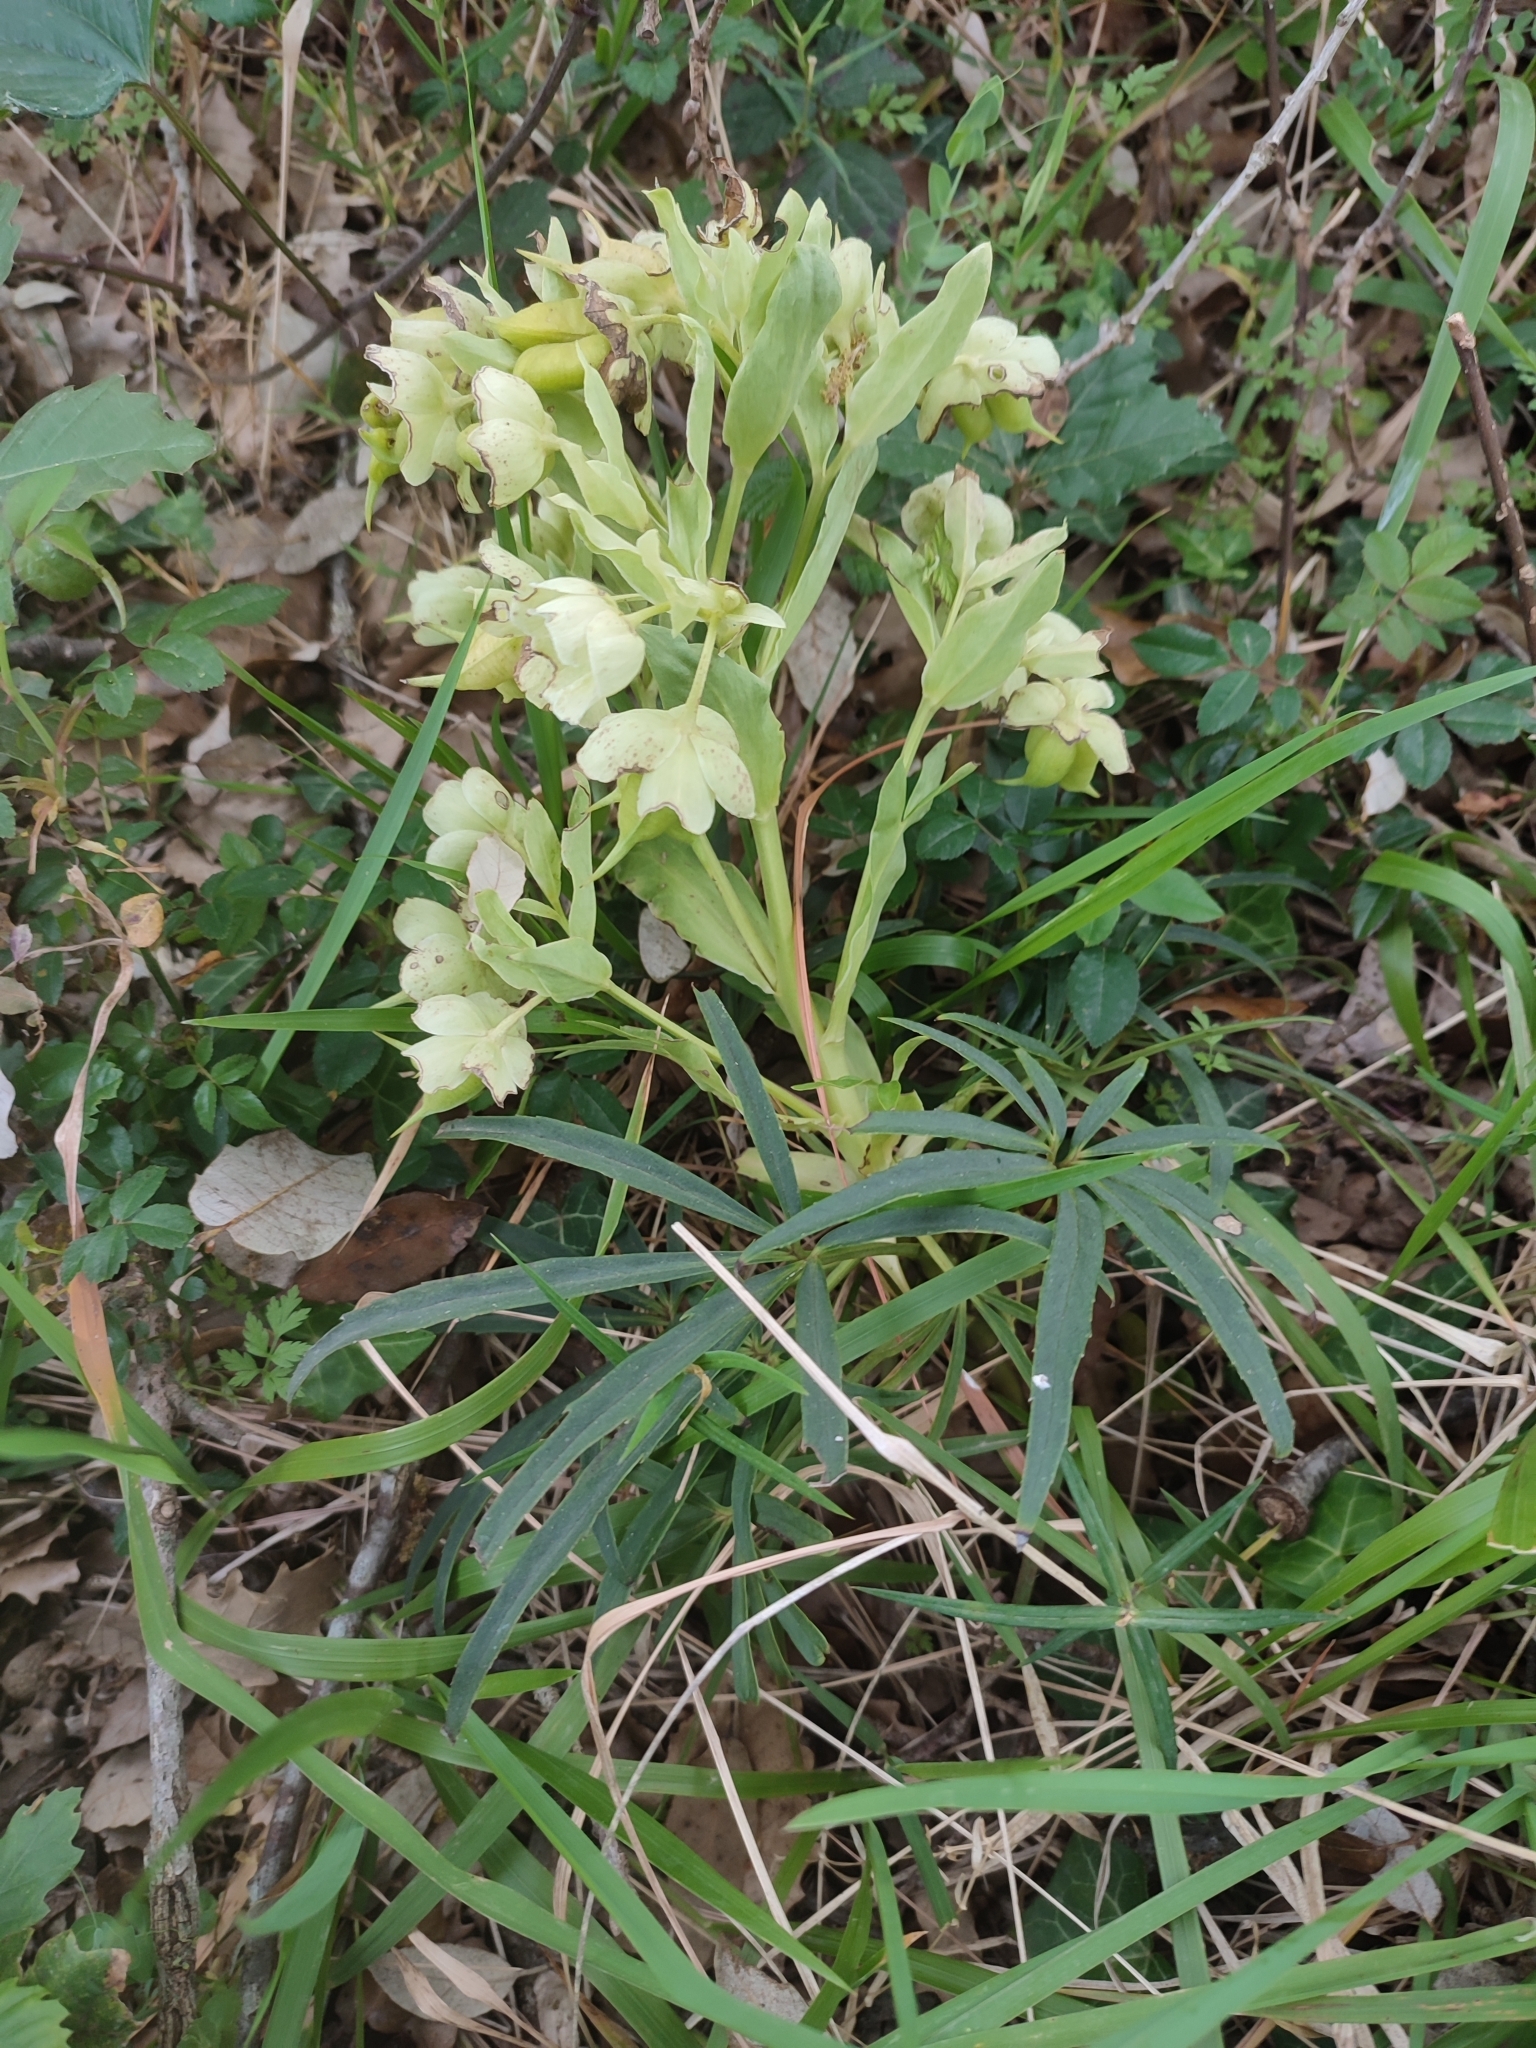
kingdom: Plantae
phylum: Tracheophyta
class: Magnoliopsida
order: Ranunculales
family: Ranunculaceae
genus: Helleborus
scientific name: Helleborus foetidus
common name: Stinking hellebore
